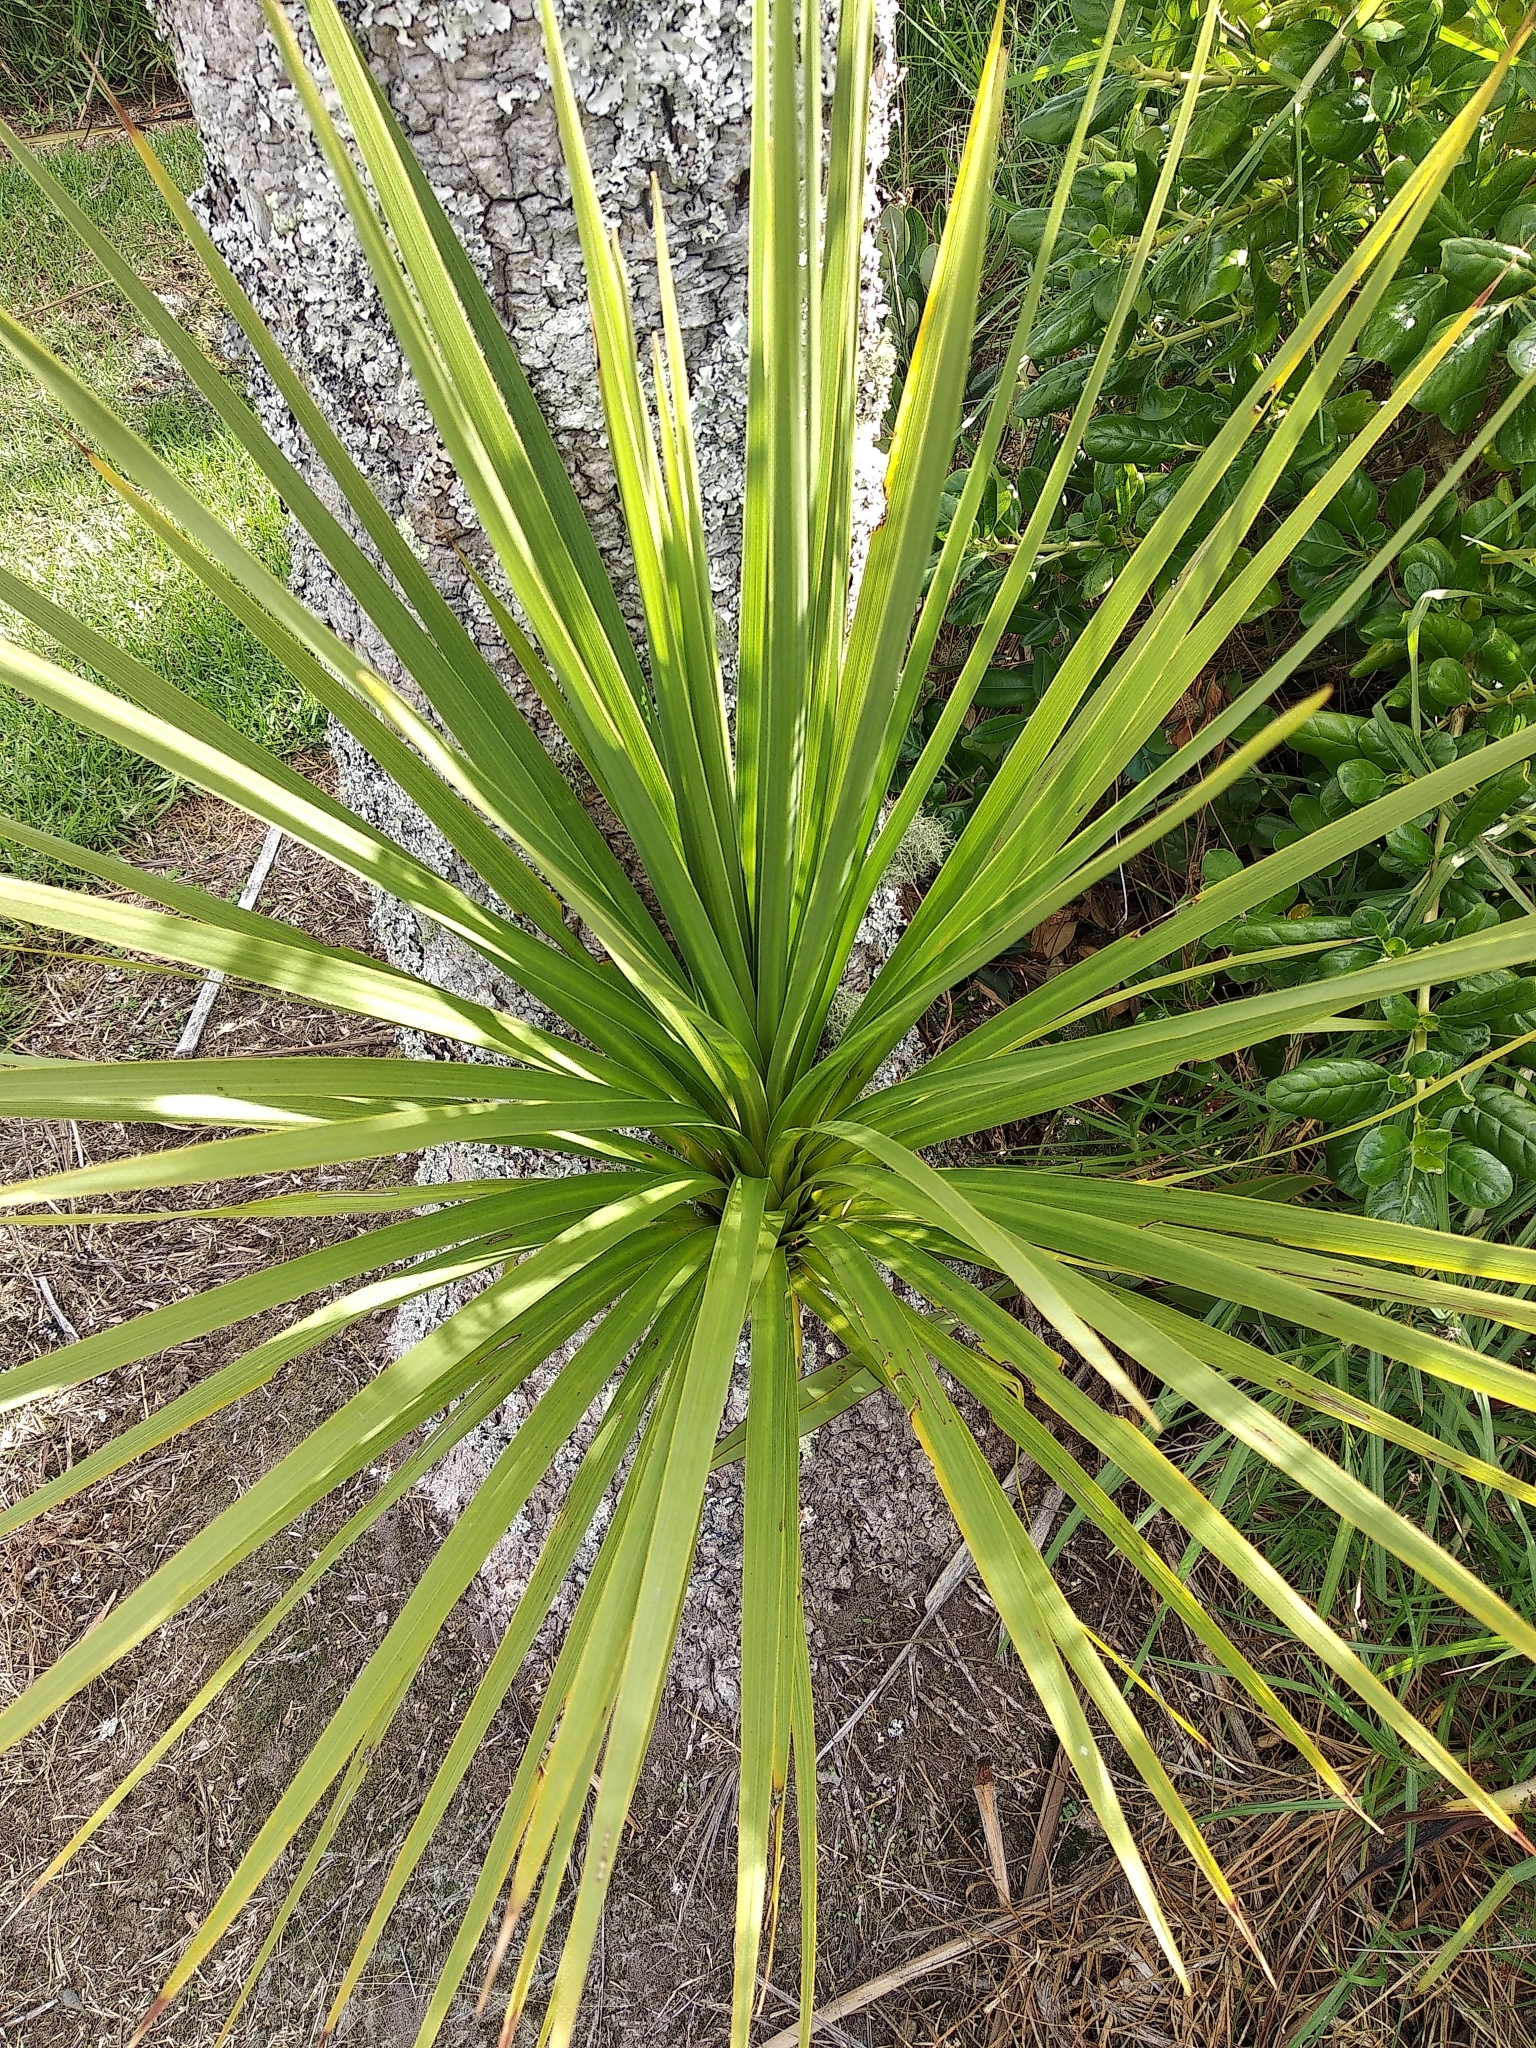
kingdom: Plantae
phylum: Tracheophyta
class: Liliopsida
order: Asparagales
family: Asparagaceae
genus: Cordyline
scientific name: Cordyline australis
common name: Cabbage-palm
